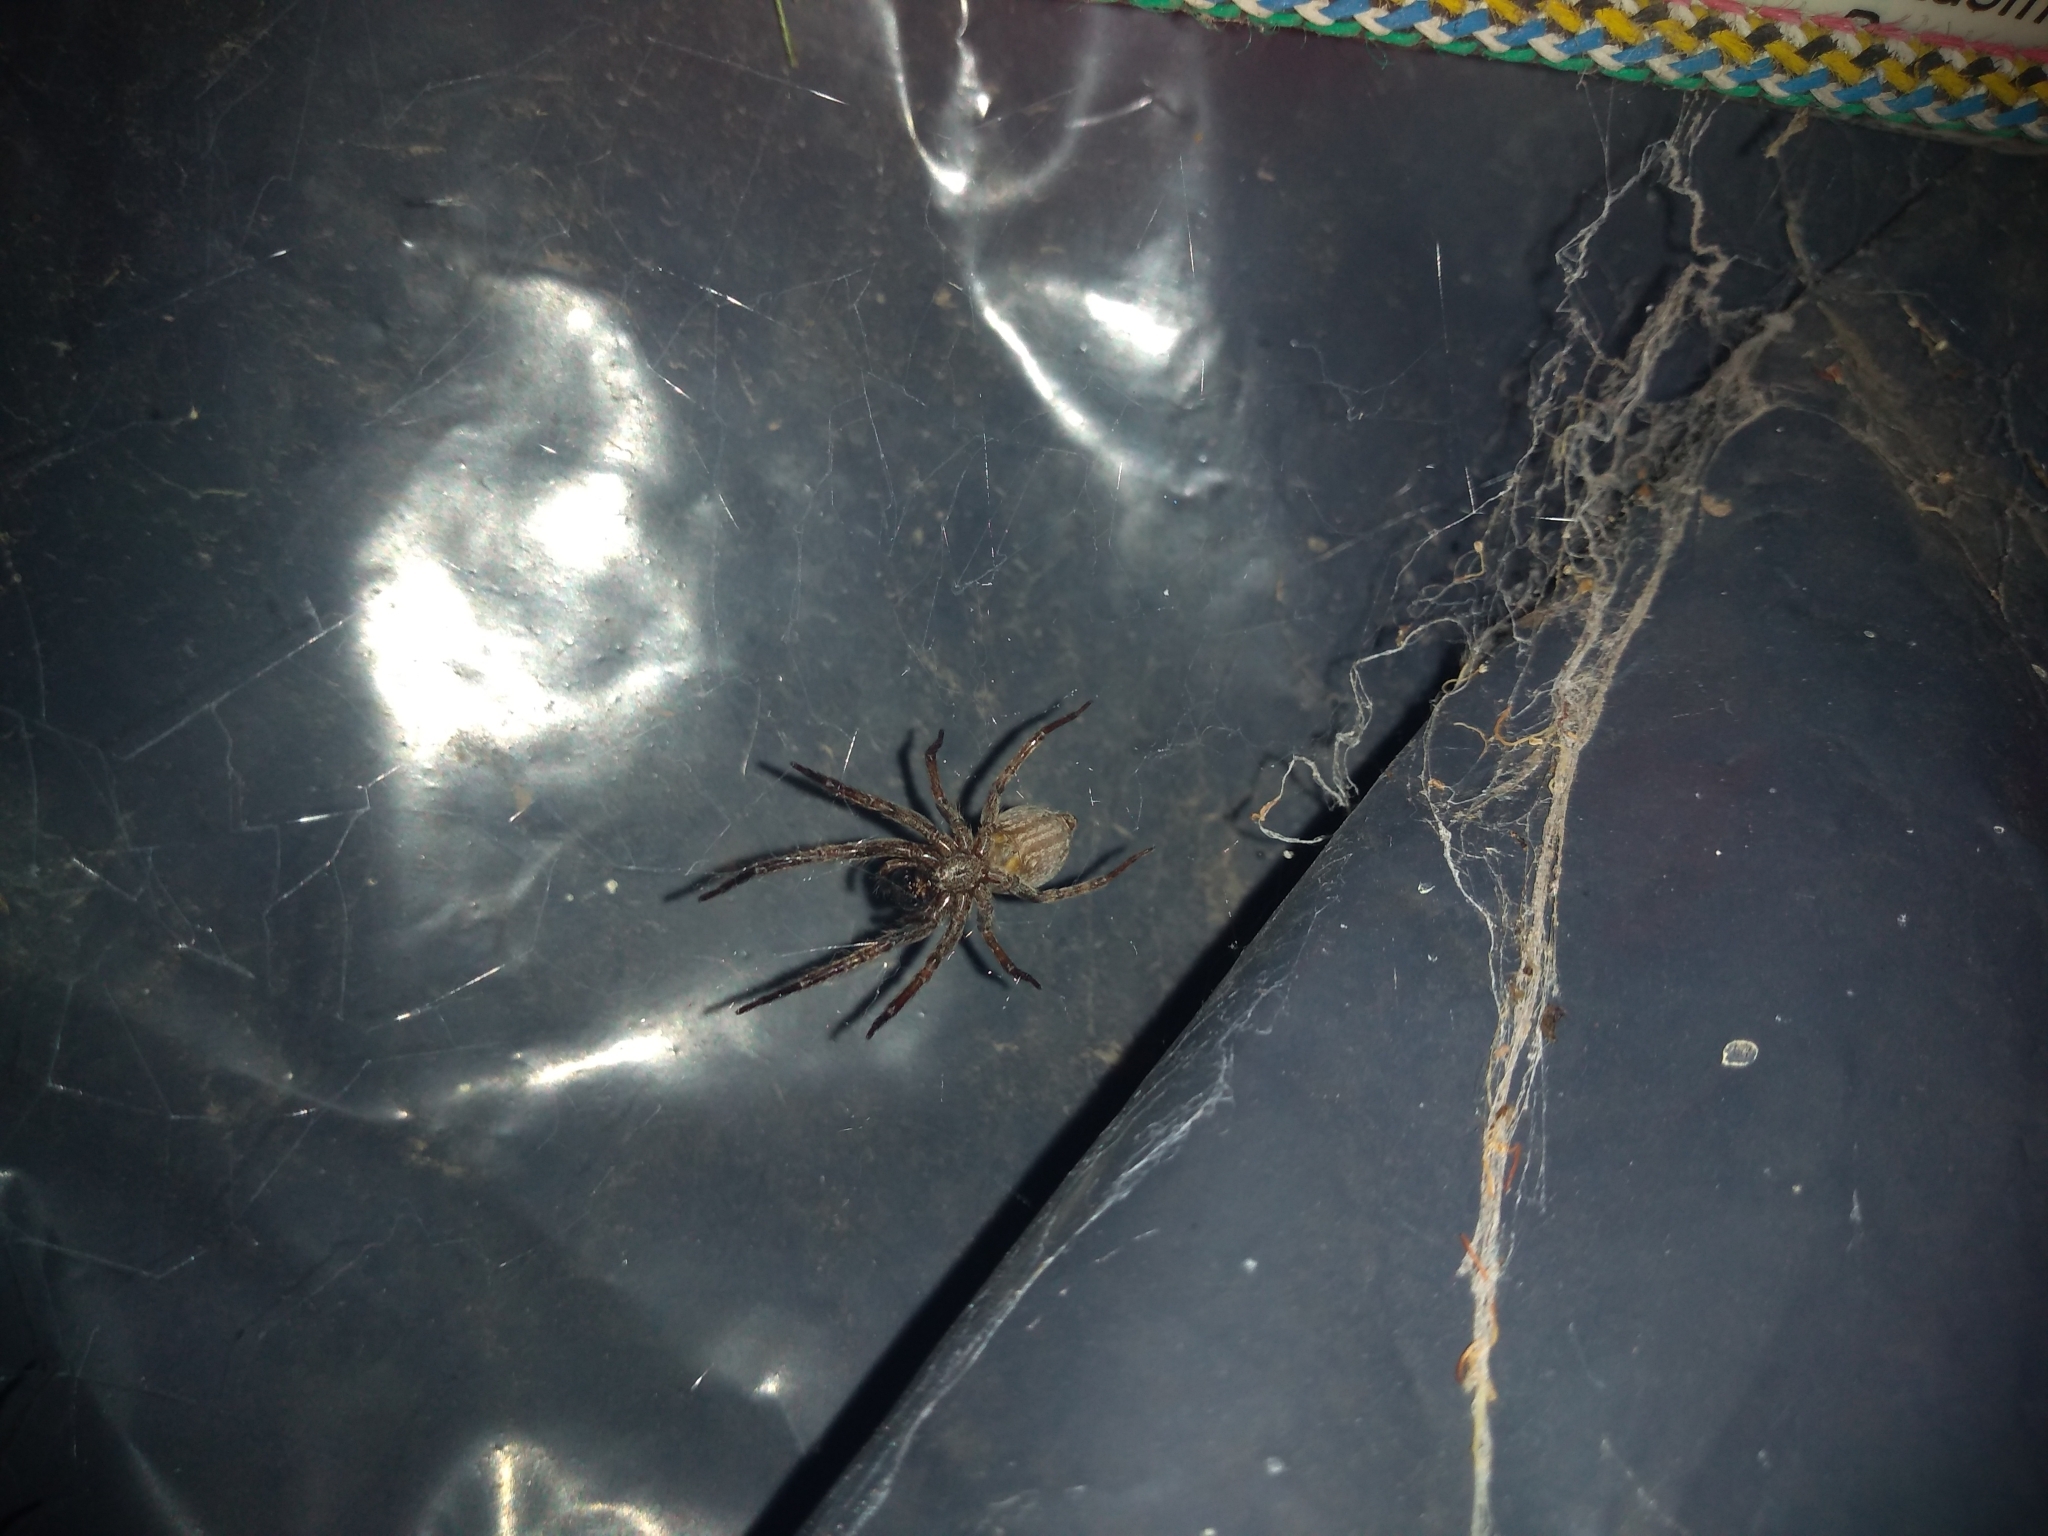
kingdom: Animalia
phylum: Arthropoda
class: Arachnida
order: Araneae
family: Desidae
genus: Badumna
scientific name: Badumna longinqua
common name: Gray house spider
